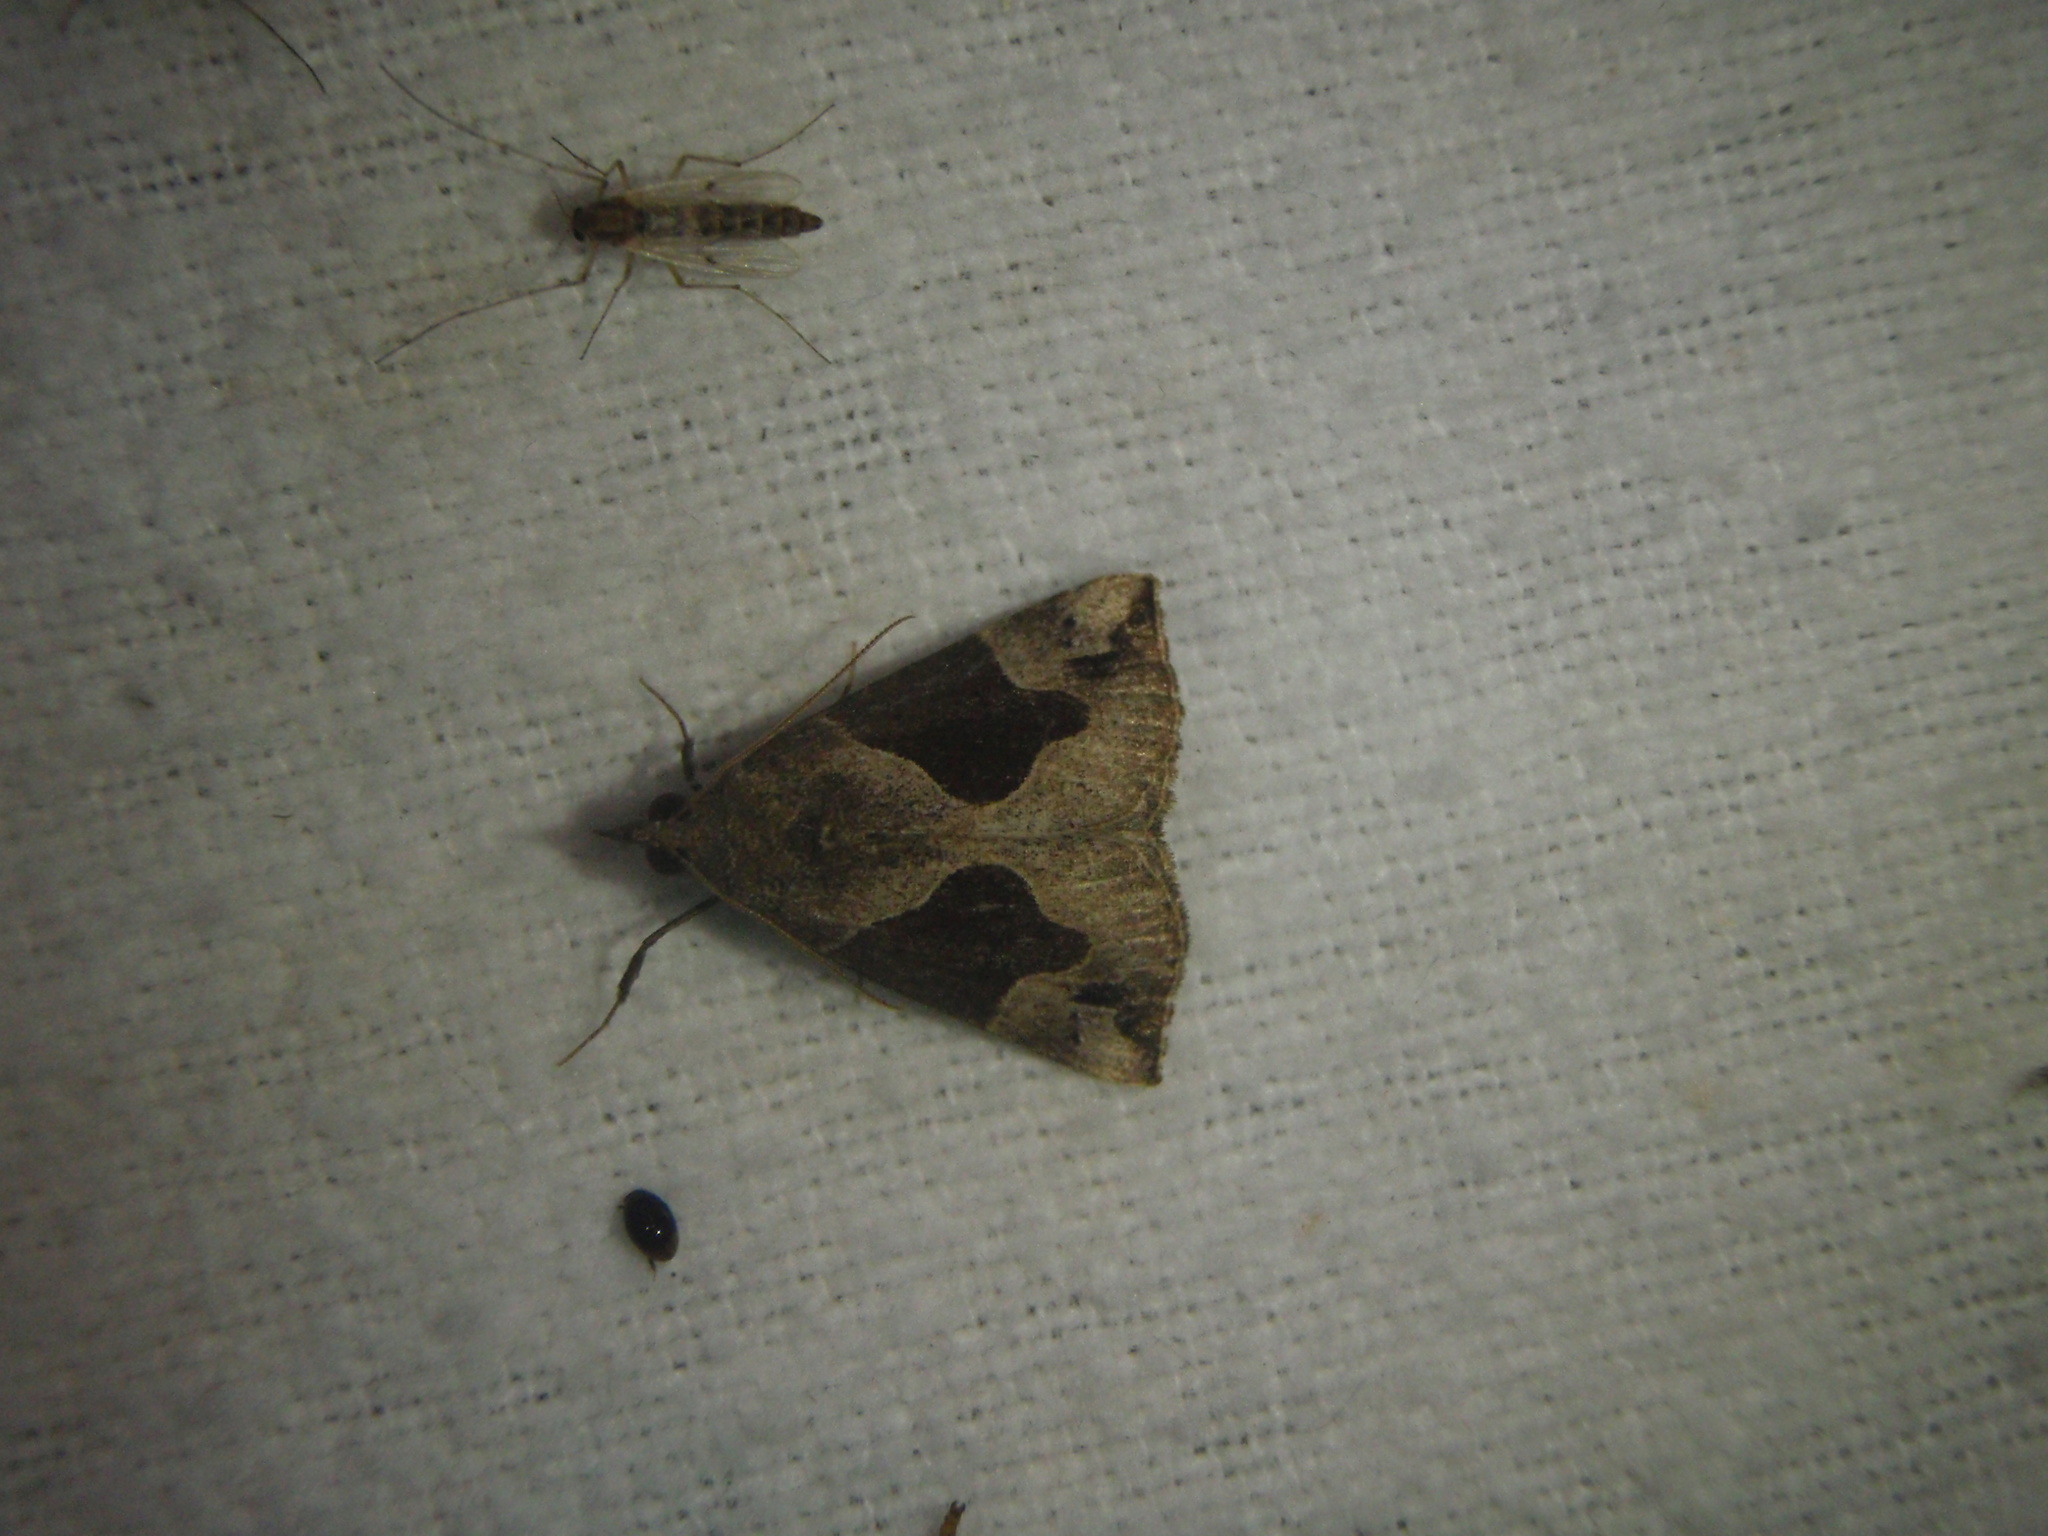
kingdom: Animalia
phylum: Arthropoda
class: Insecta
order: Lepidoptera
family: Erebidae
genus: Hypena
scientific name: Hypena manalis
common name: Flowing-line bomolocha moth
